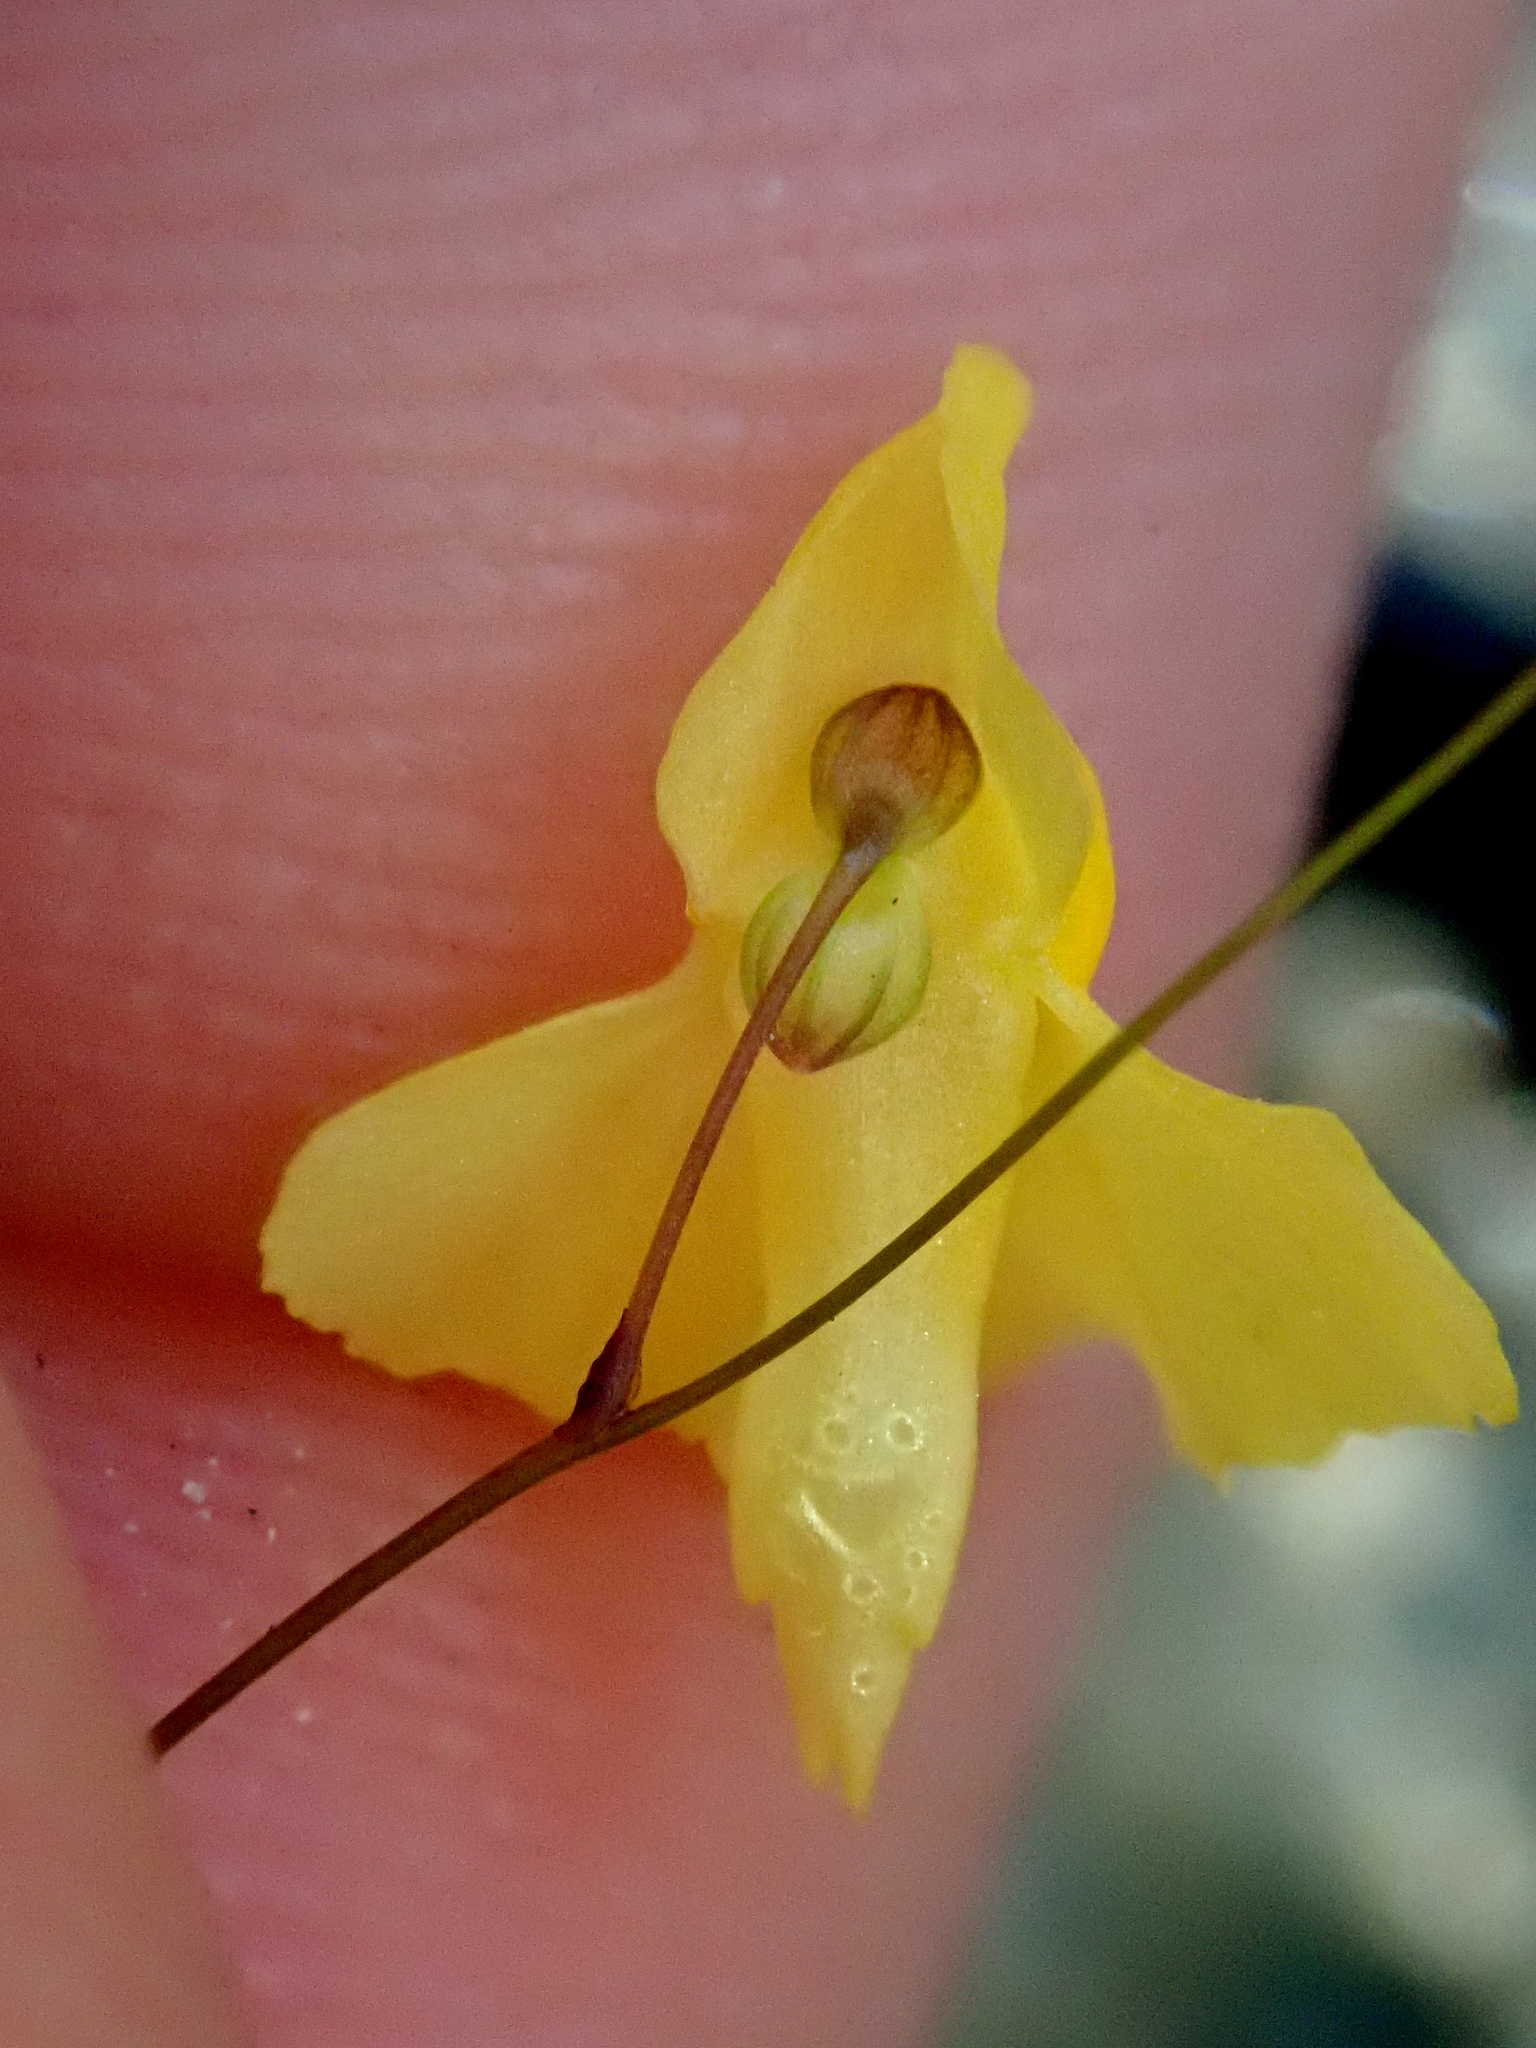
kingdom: Plantae
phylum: Tracheophyta
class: Magnoliopsida
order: Lamiales
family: Lentibulariaceae
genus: Utricularia
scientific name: Utricularia triloba
